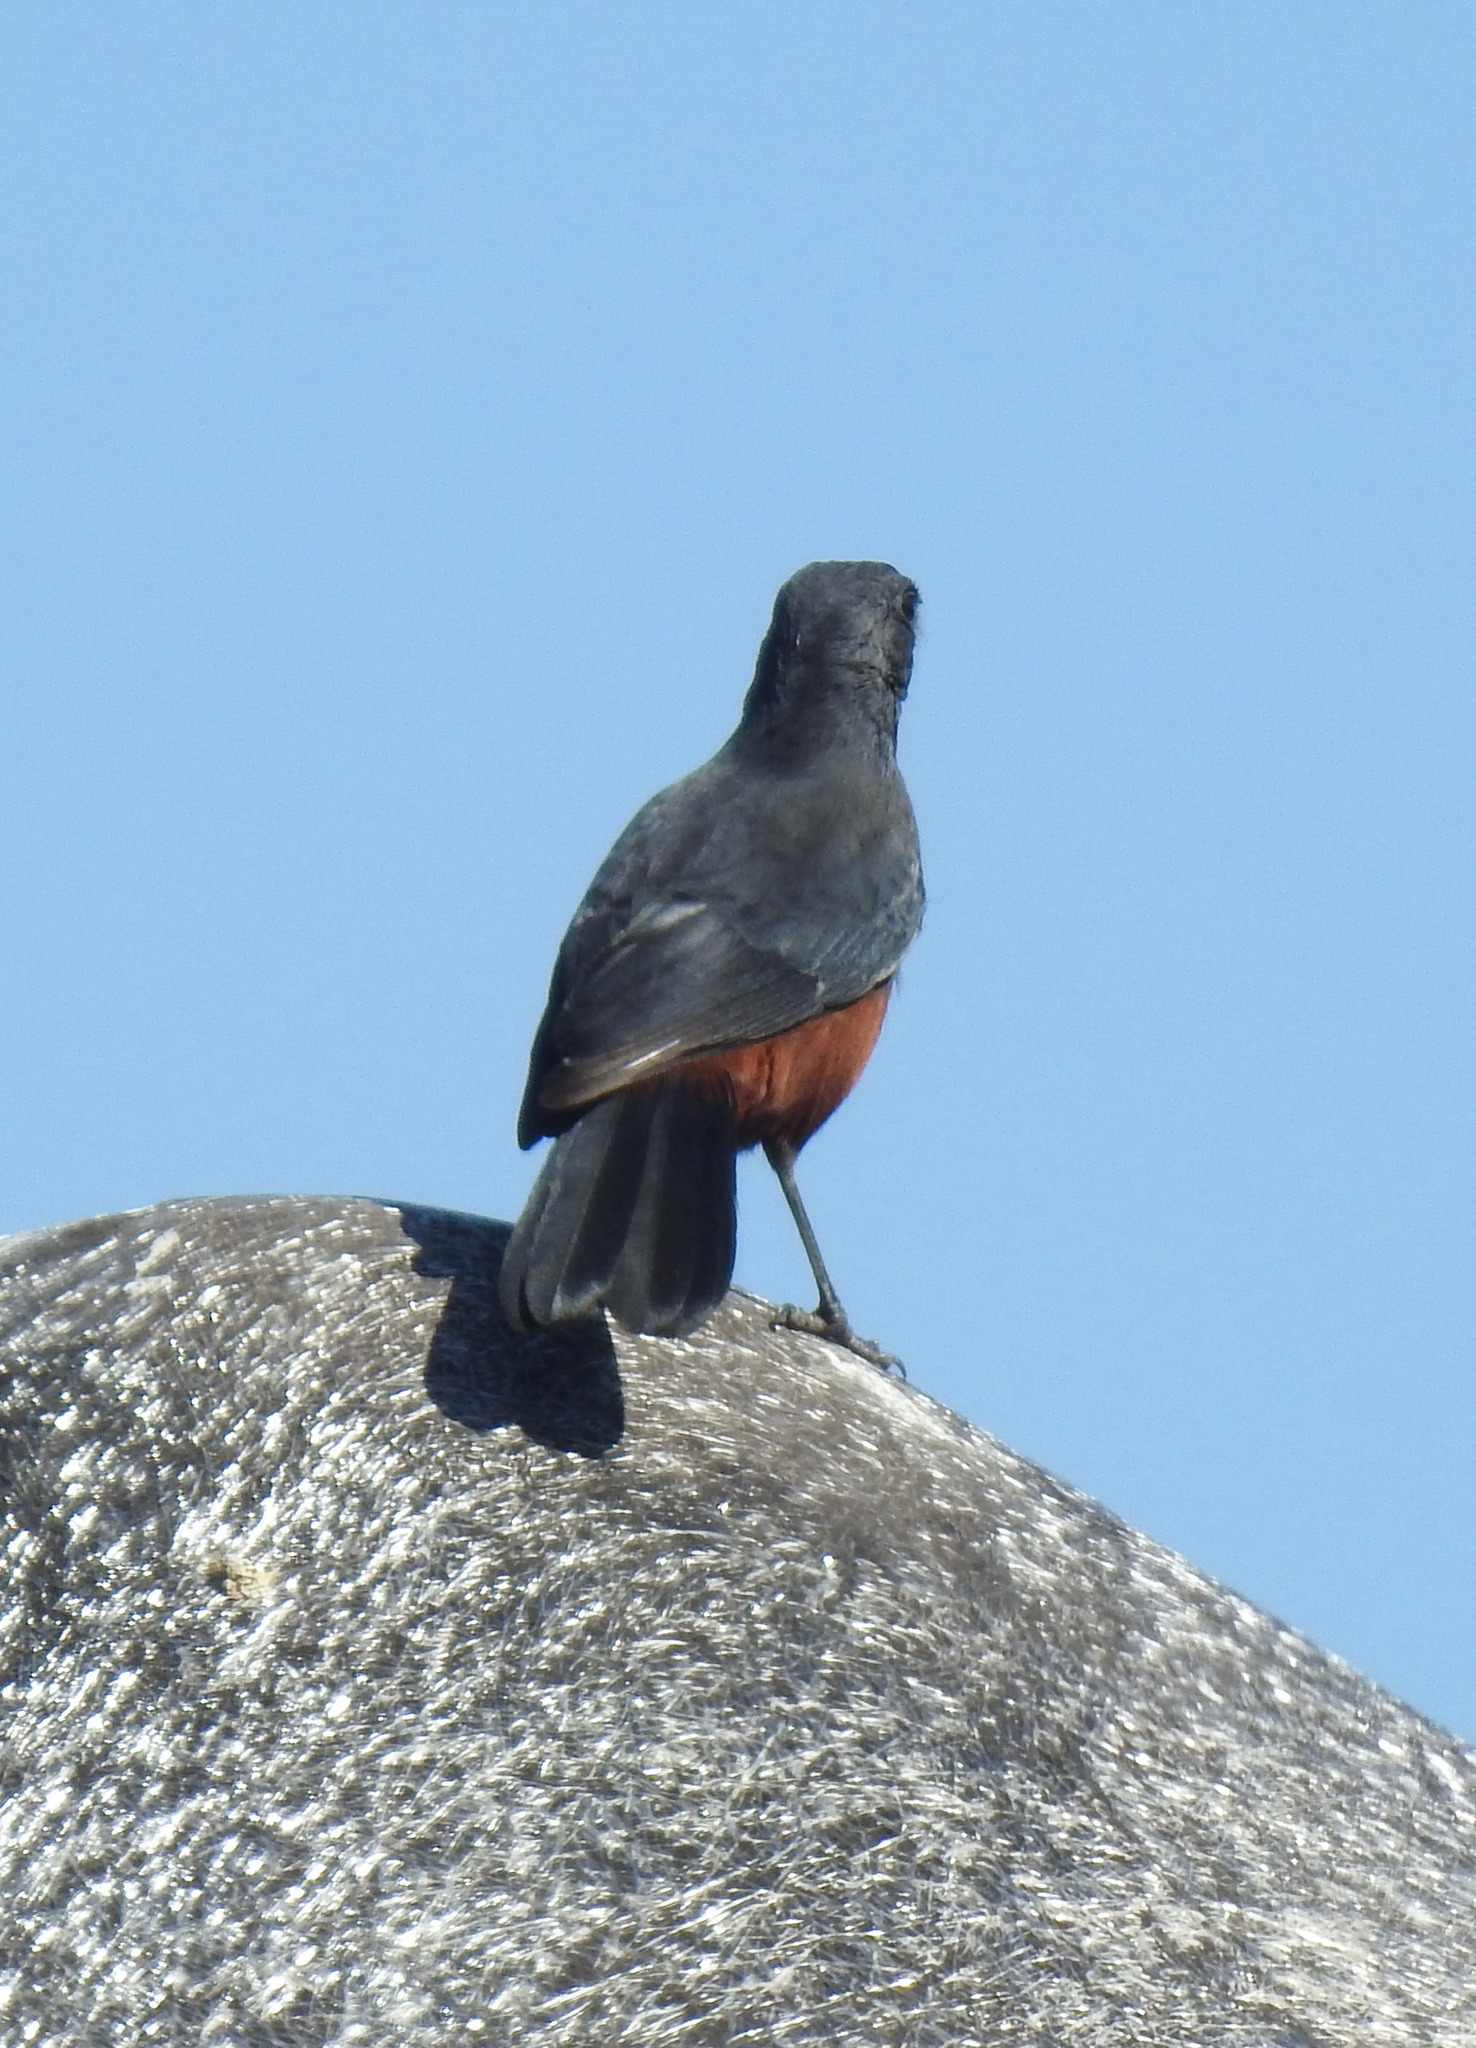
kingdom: Animalia
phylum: Chordata
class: Aves
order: Passeriformes
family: Muscicapidae
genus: Thamnolaea
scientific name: Thamnolaea cinnamomeiventris
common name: Mocking cliff chat
